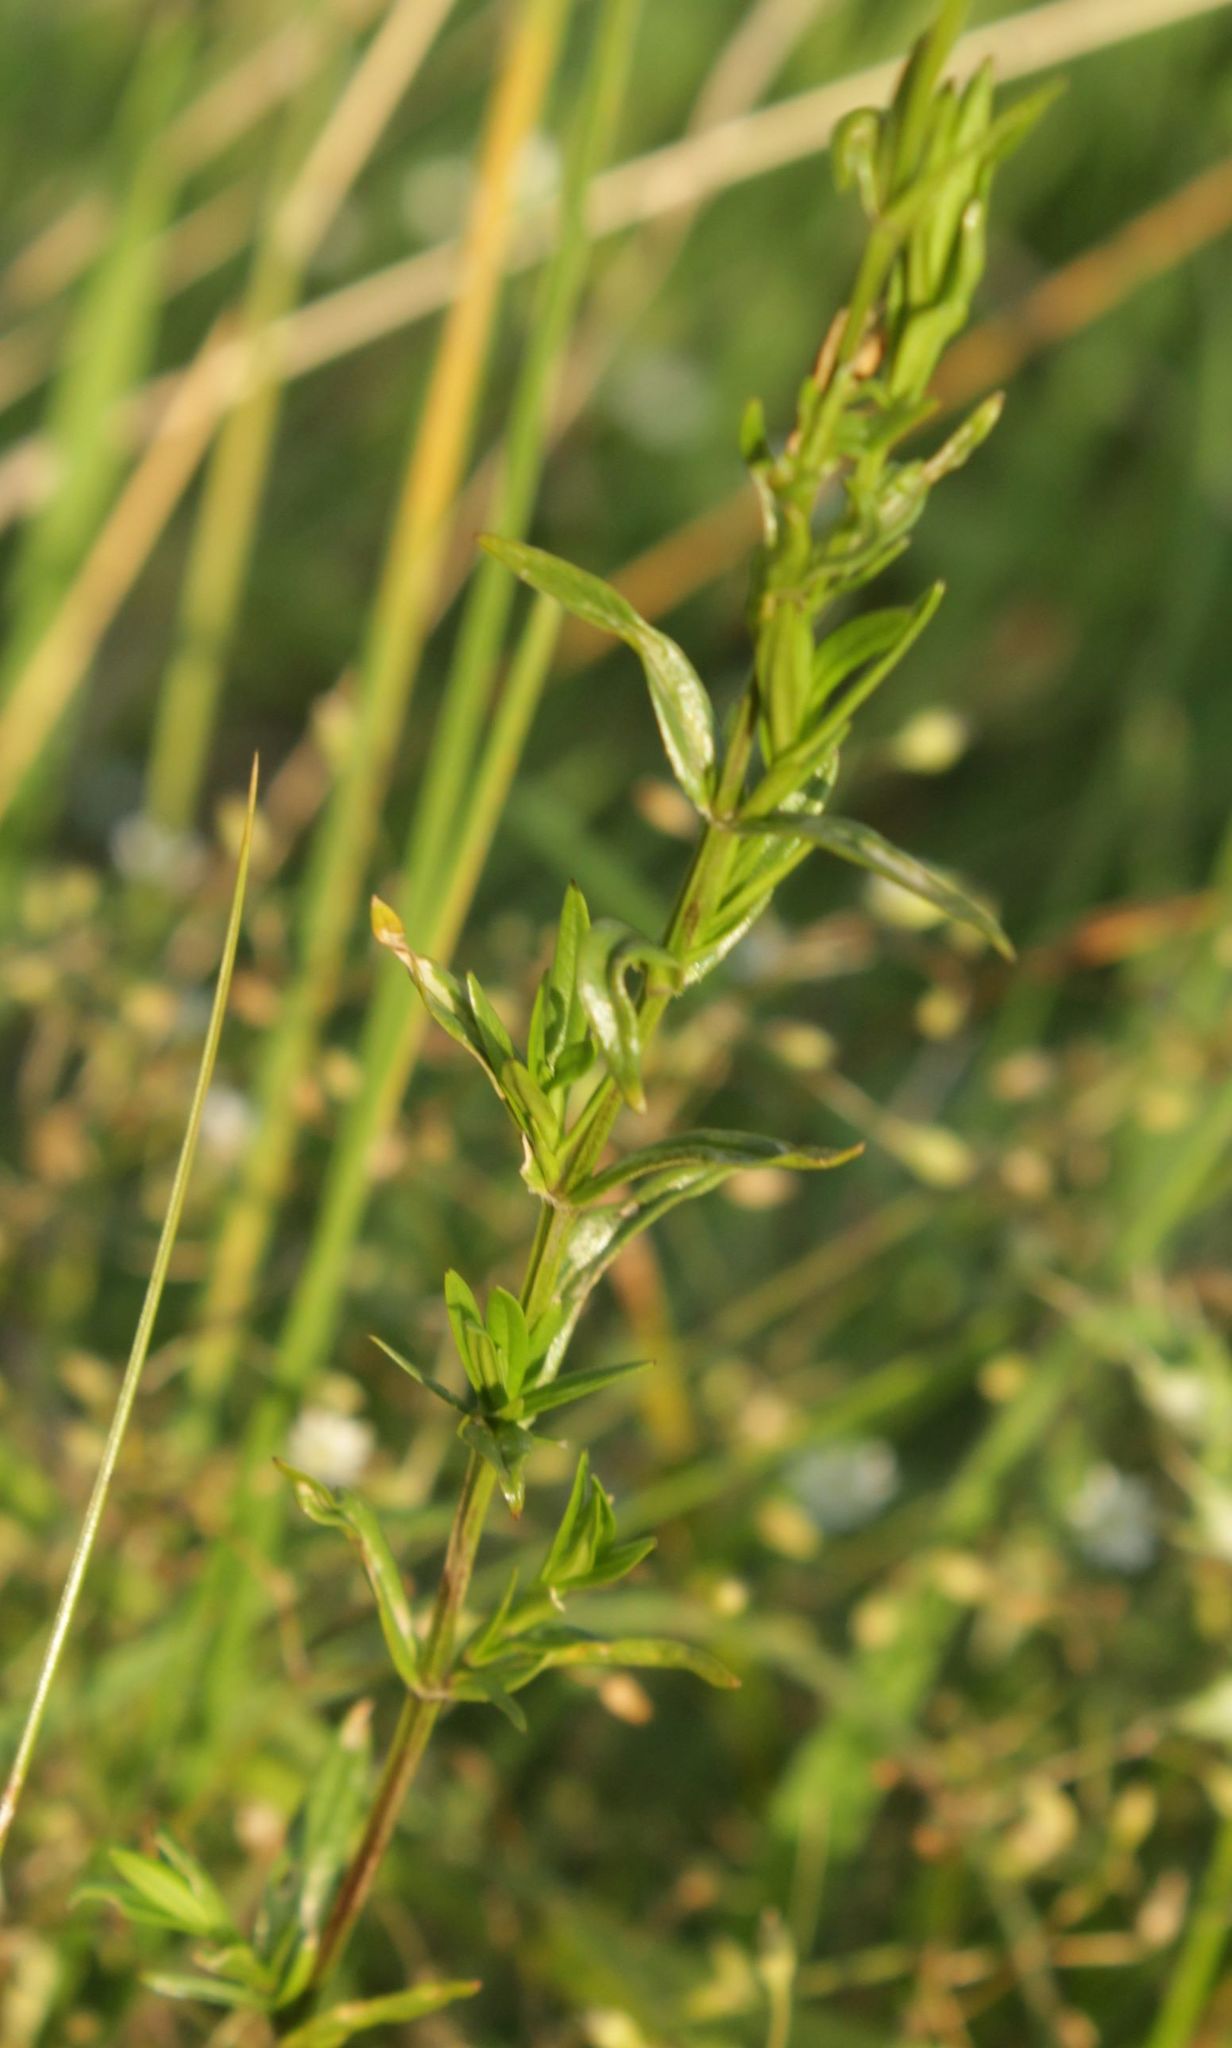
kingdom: Plantae
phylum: Tracheophyta
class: Magnoliopsida
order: Caryophyllales
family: Caryophyllaceae
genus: Stellaria
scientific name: Stellaria graminea
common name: Grass-like starwort
